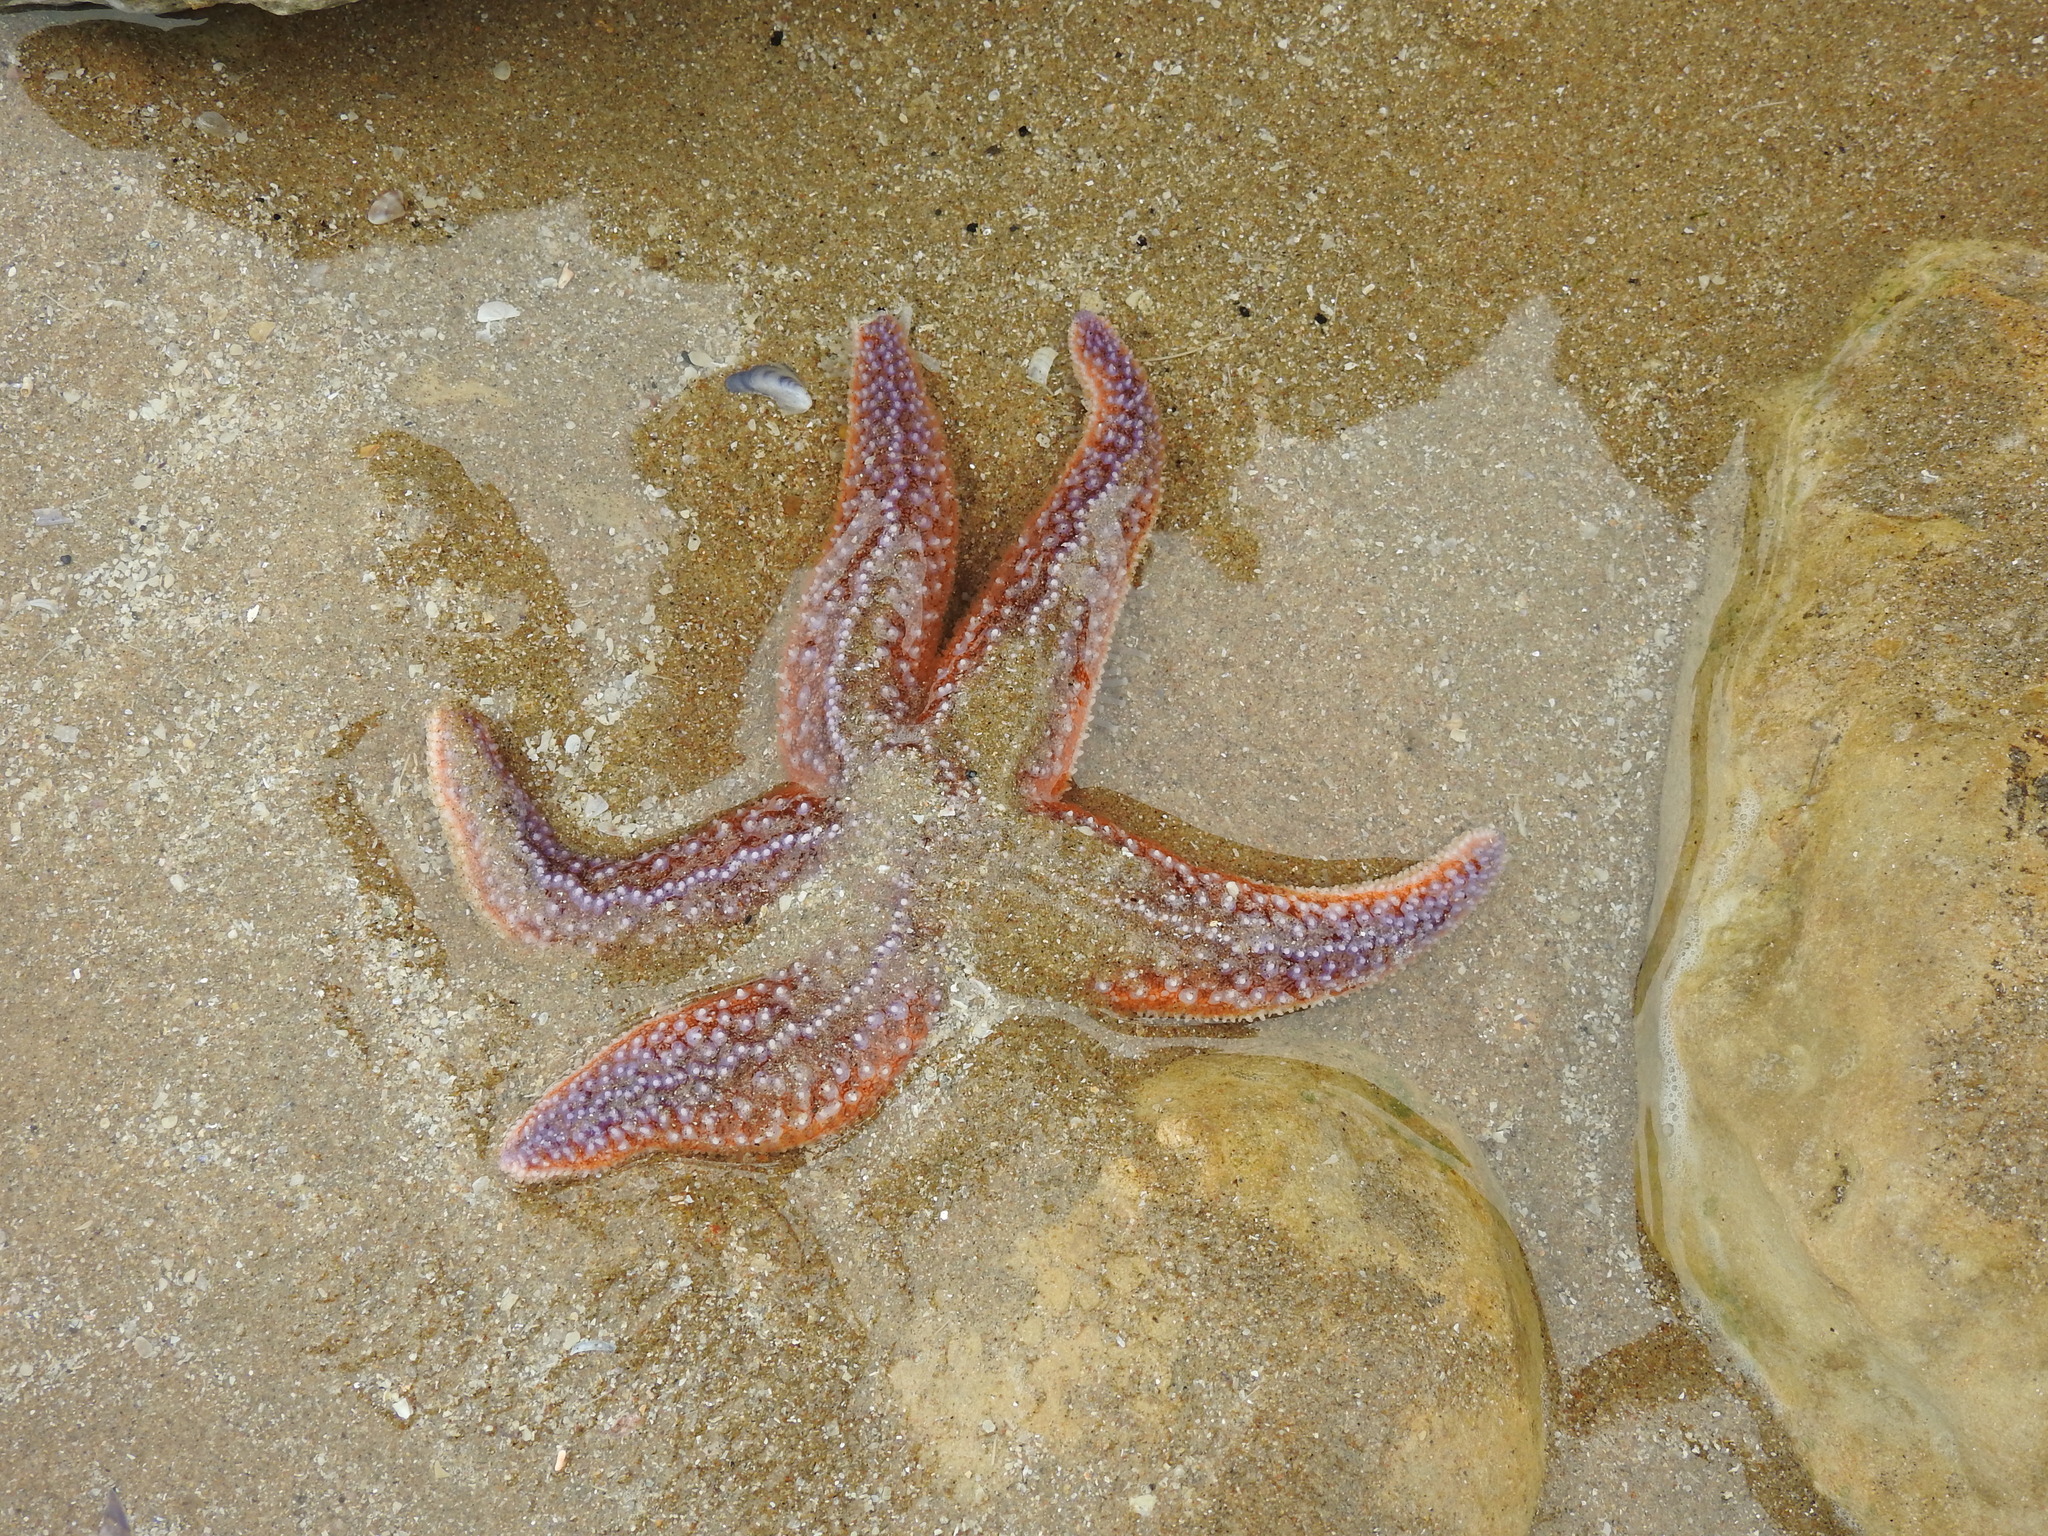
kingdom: Animalia
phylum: Echinodermata
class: Asteroidea
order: Forcipulatida
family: Asteriidae
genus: Asterias
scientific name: Asterias rubens
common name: Common starfish
